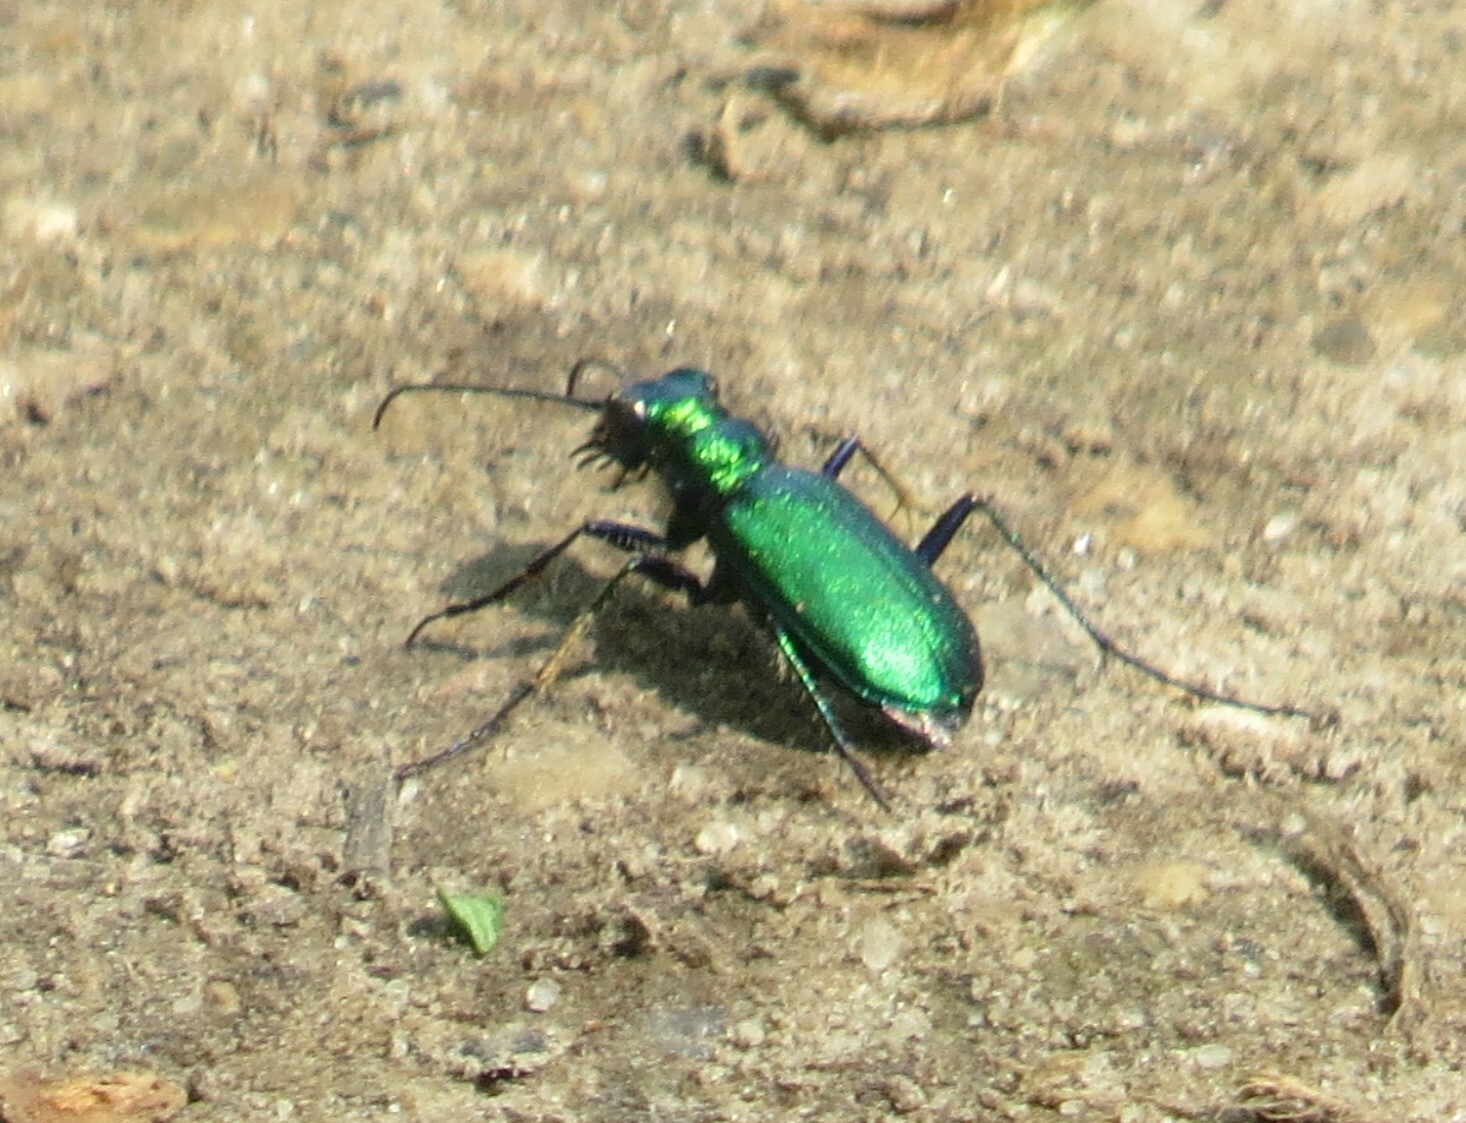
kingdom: Animalia
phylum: Arthropoda
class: Insecta
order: Coleoptera
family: Carabidae
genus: Cicindela
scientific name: Cicindela sexguttata
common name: Six-spotted tiger beetle
